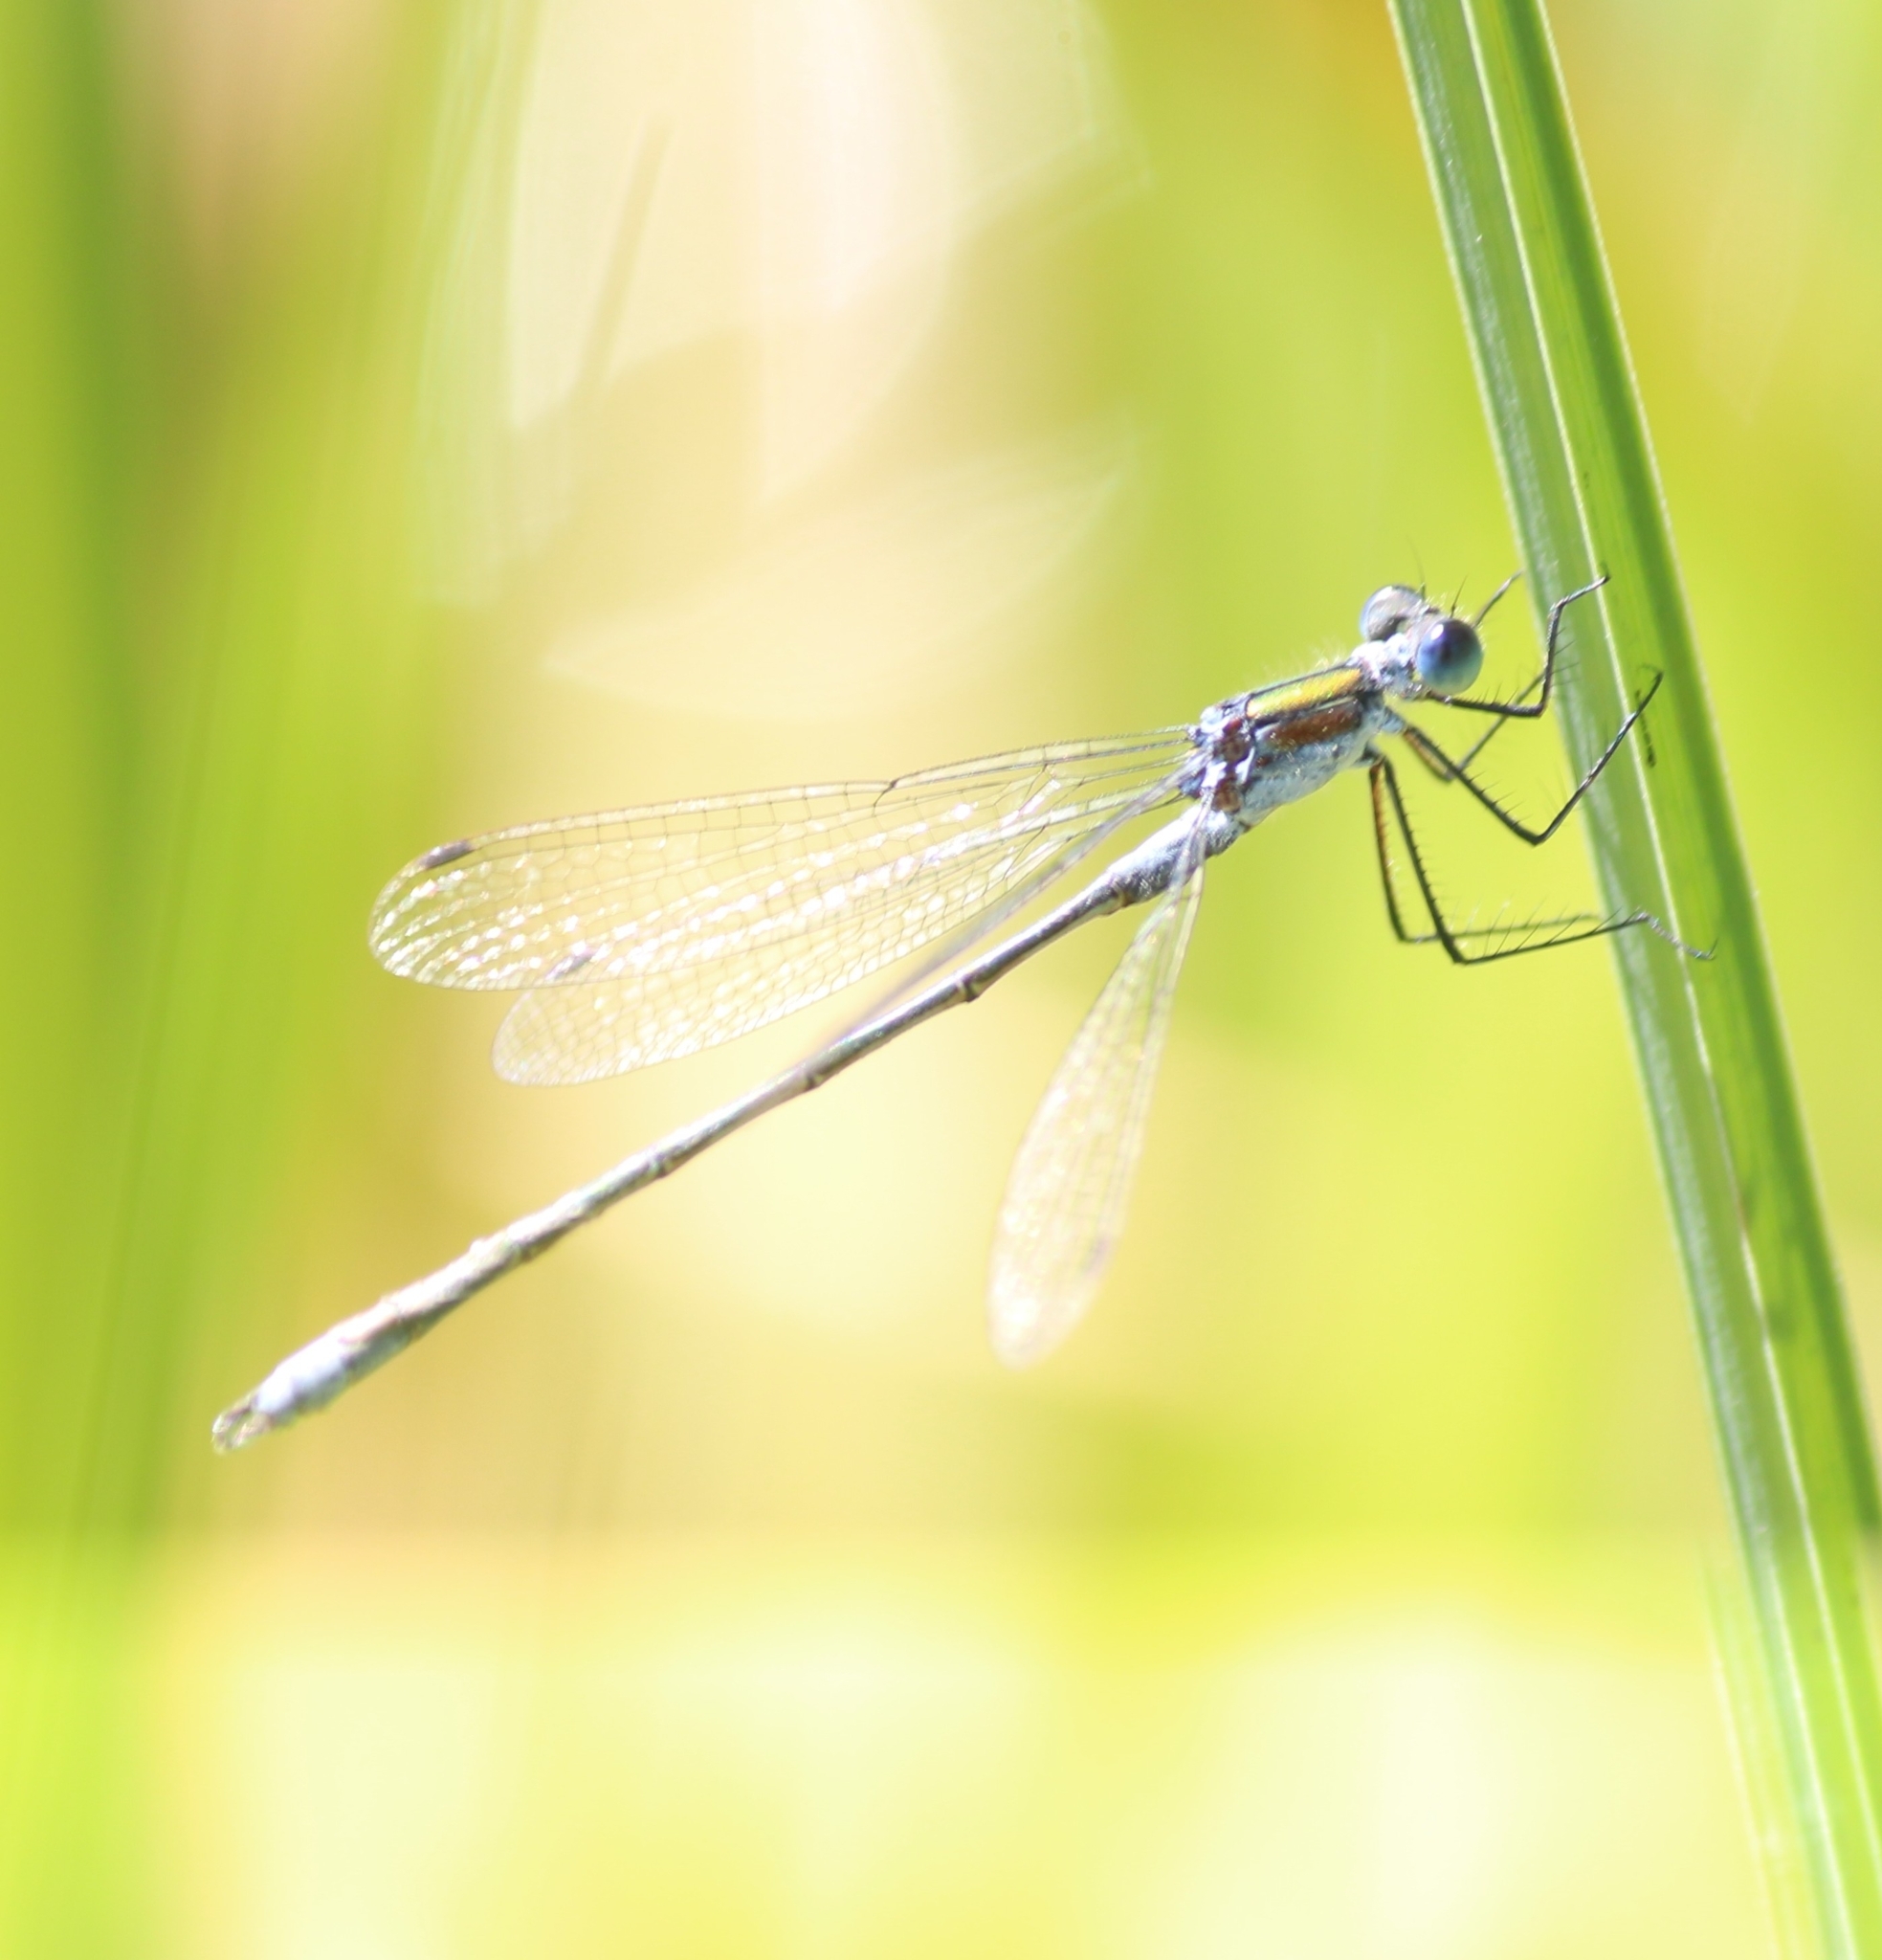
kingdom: Animalia
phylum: Arthropoda
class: Insecta
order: Odonata
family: Lestidae
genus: Lestes
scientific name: Lestes sponsa
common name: Common spreadwing
